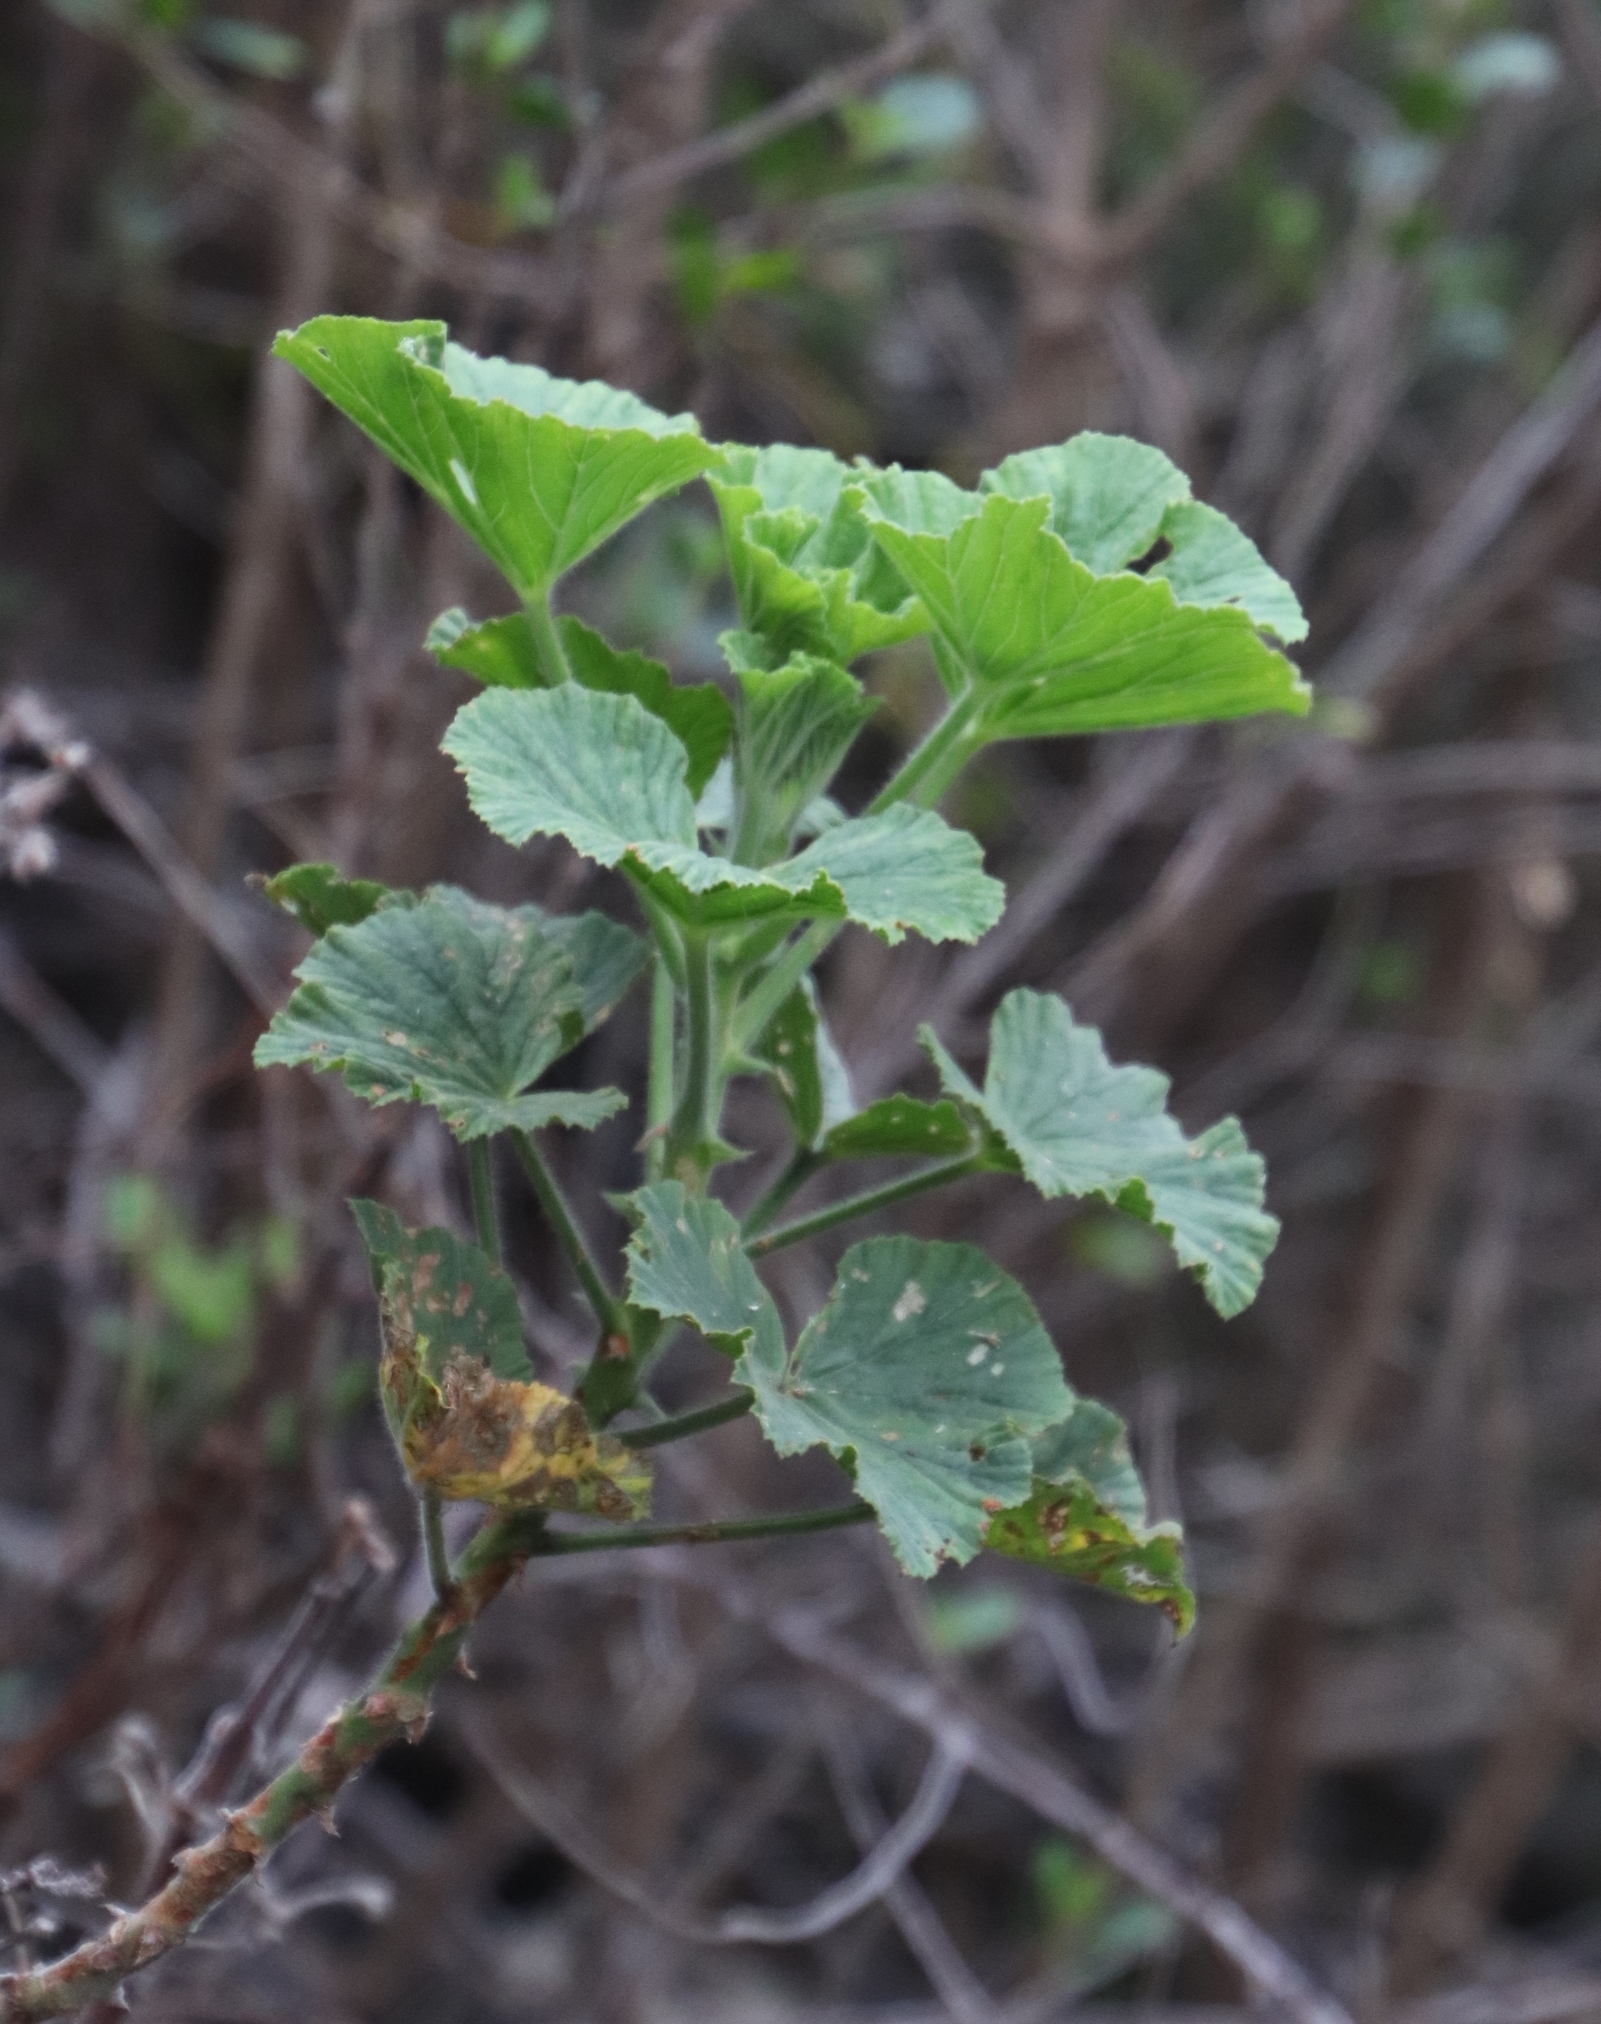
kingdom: Plantae
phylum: Tracheophyta
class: Magnoliopsida
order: Geraniales
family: Geraniaceae
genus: Pelargonium
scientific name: Pelargonium cucullatum
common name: Tree pelargonium
